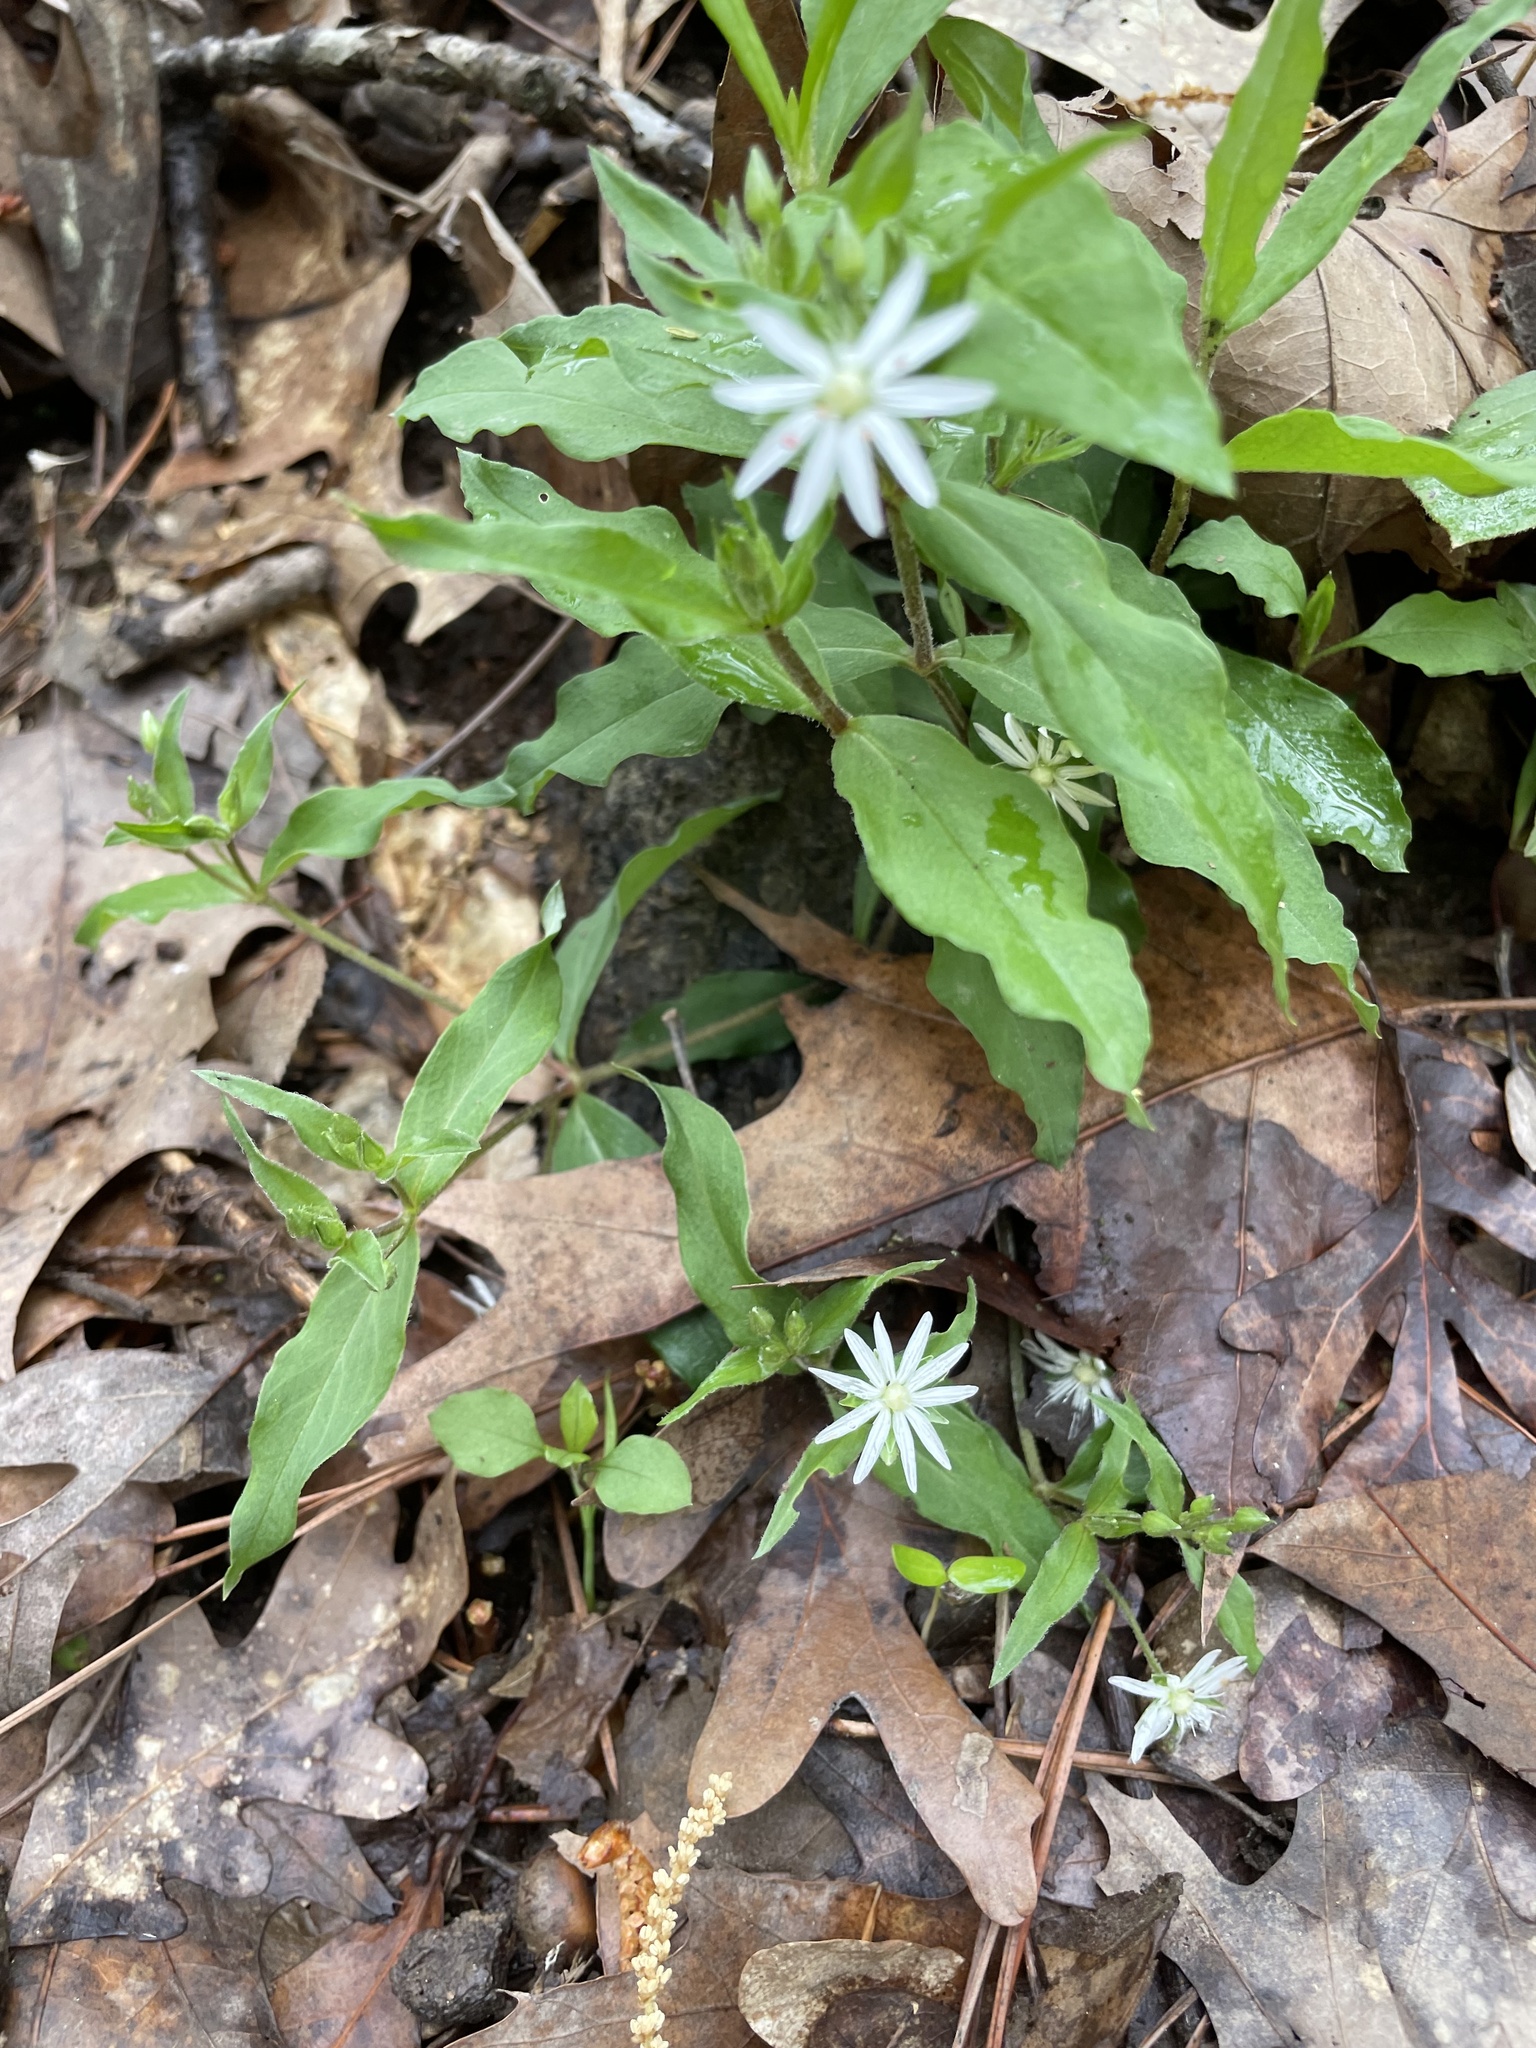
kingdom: Plantae
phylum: Tracheophyta
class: Magnoliopsida
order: Caryophyllales
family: Caryophyllaceae
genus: Stellaria
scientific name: Stellaria pubera
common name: Star chickweed
